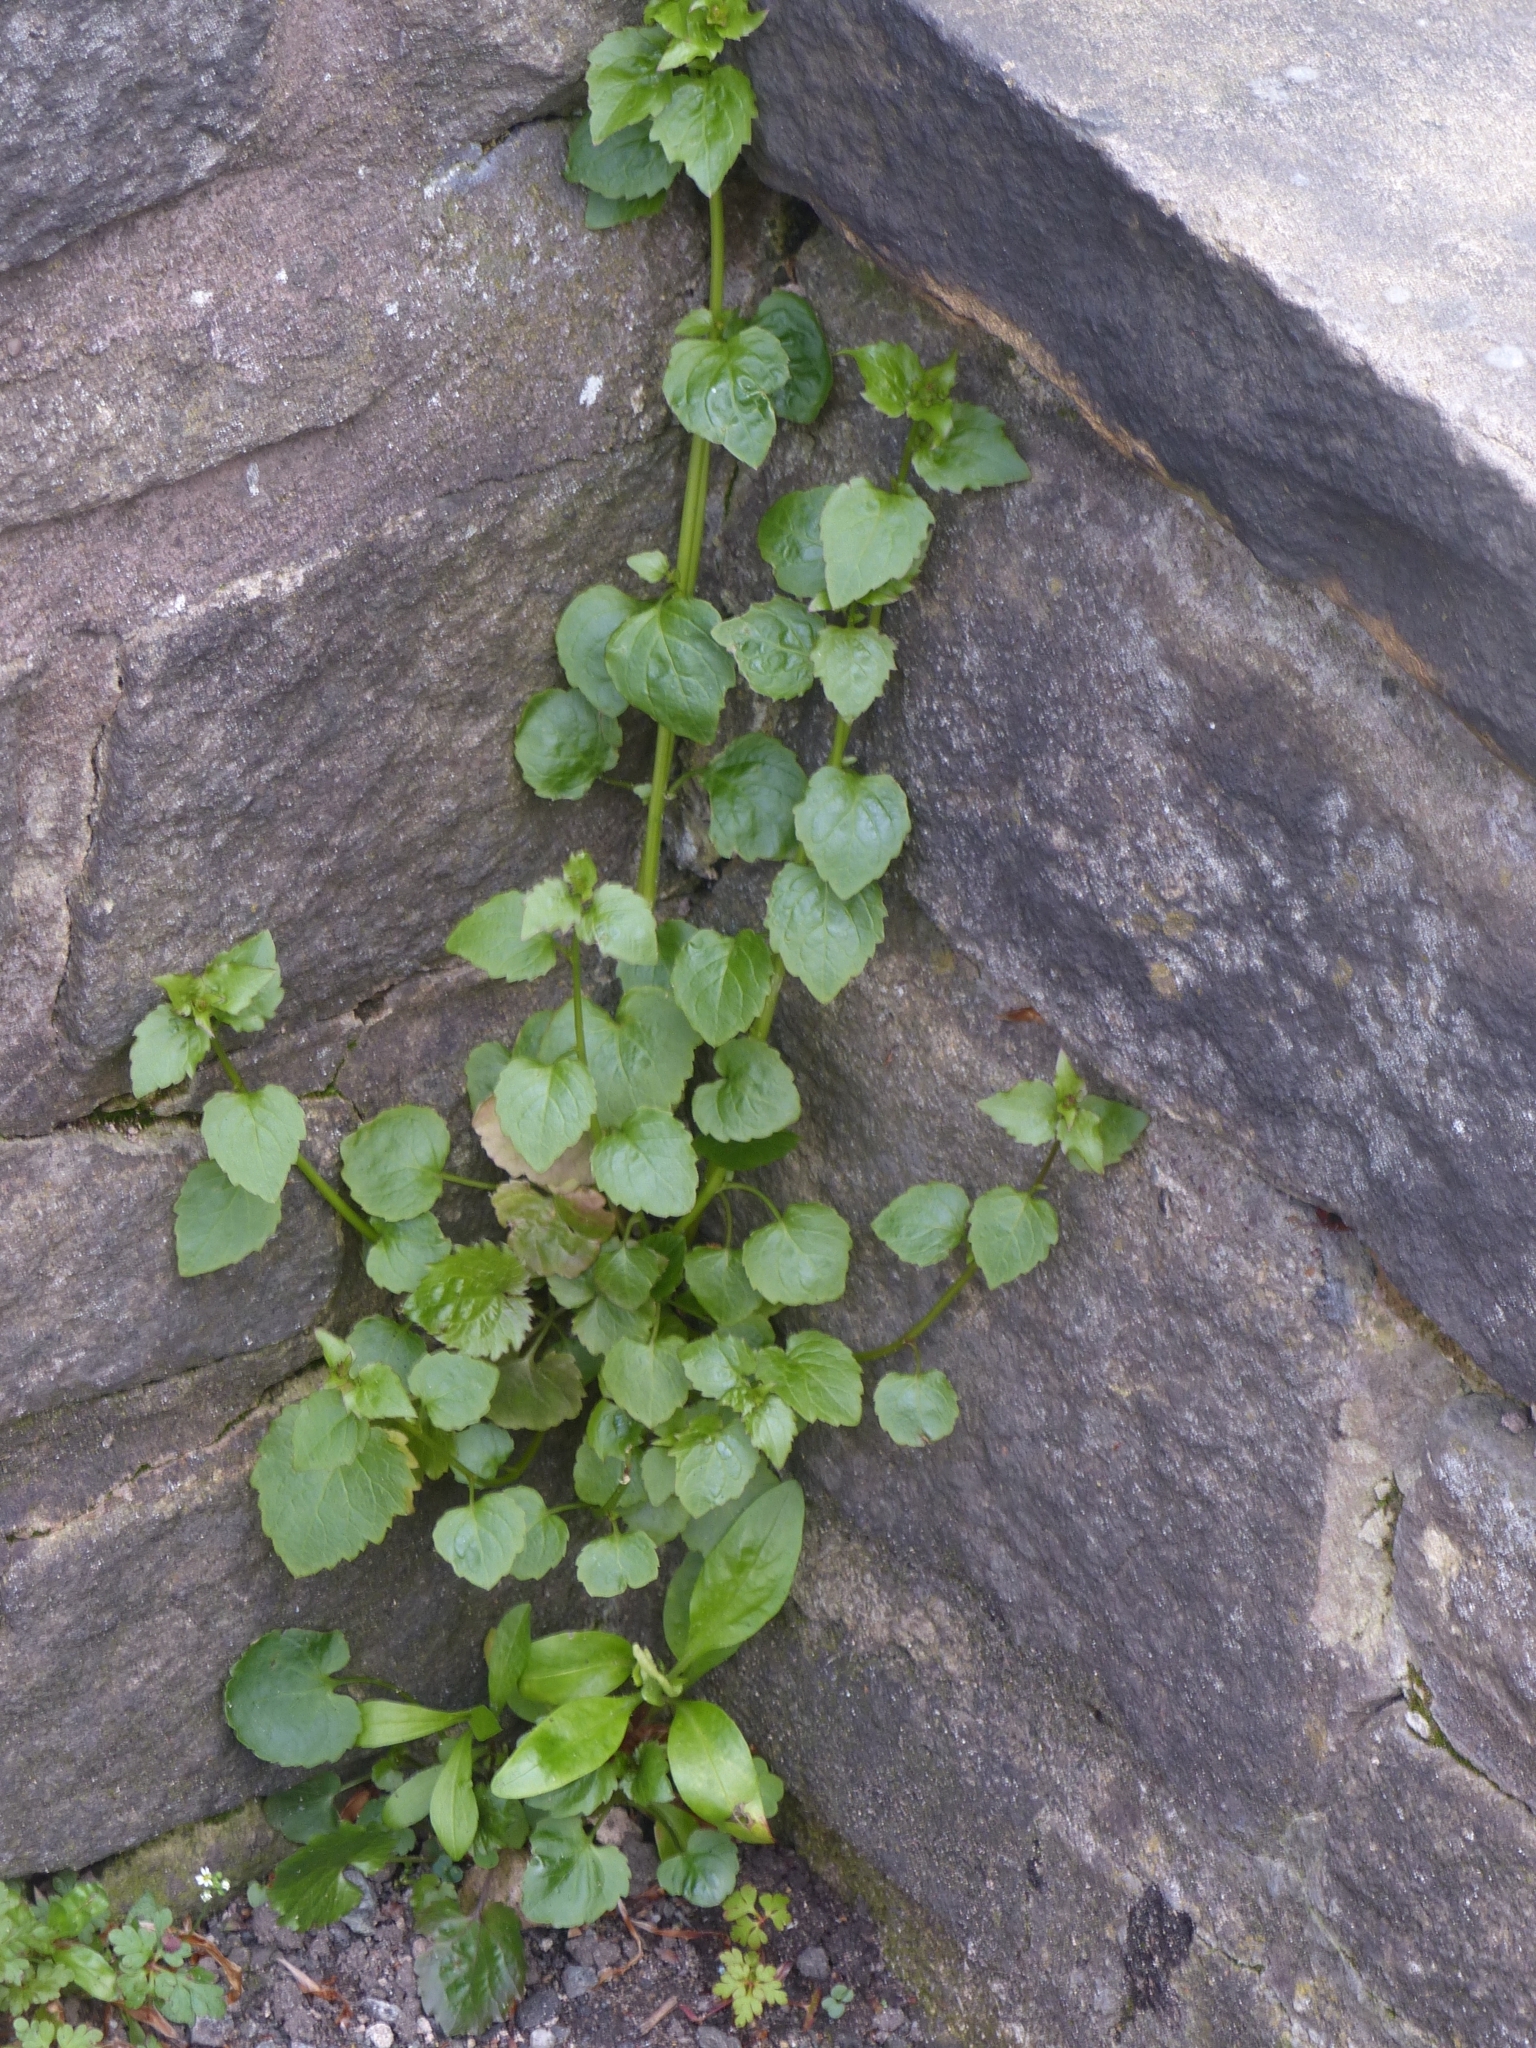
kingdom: Plantae
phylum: Tracheophyta
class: Magnoliopsida
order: Asterales
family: Campanulaceae
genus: Campanula
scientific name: Campanula poscharskyana
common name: Trailing bellflower
